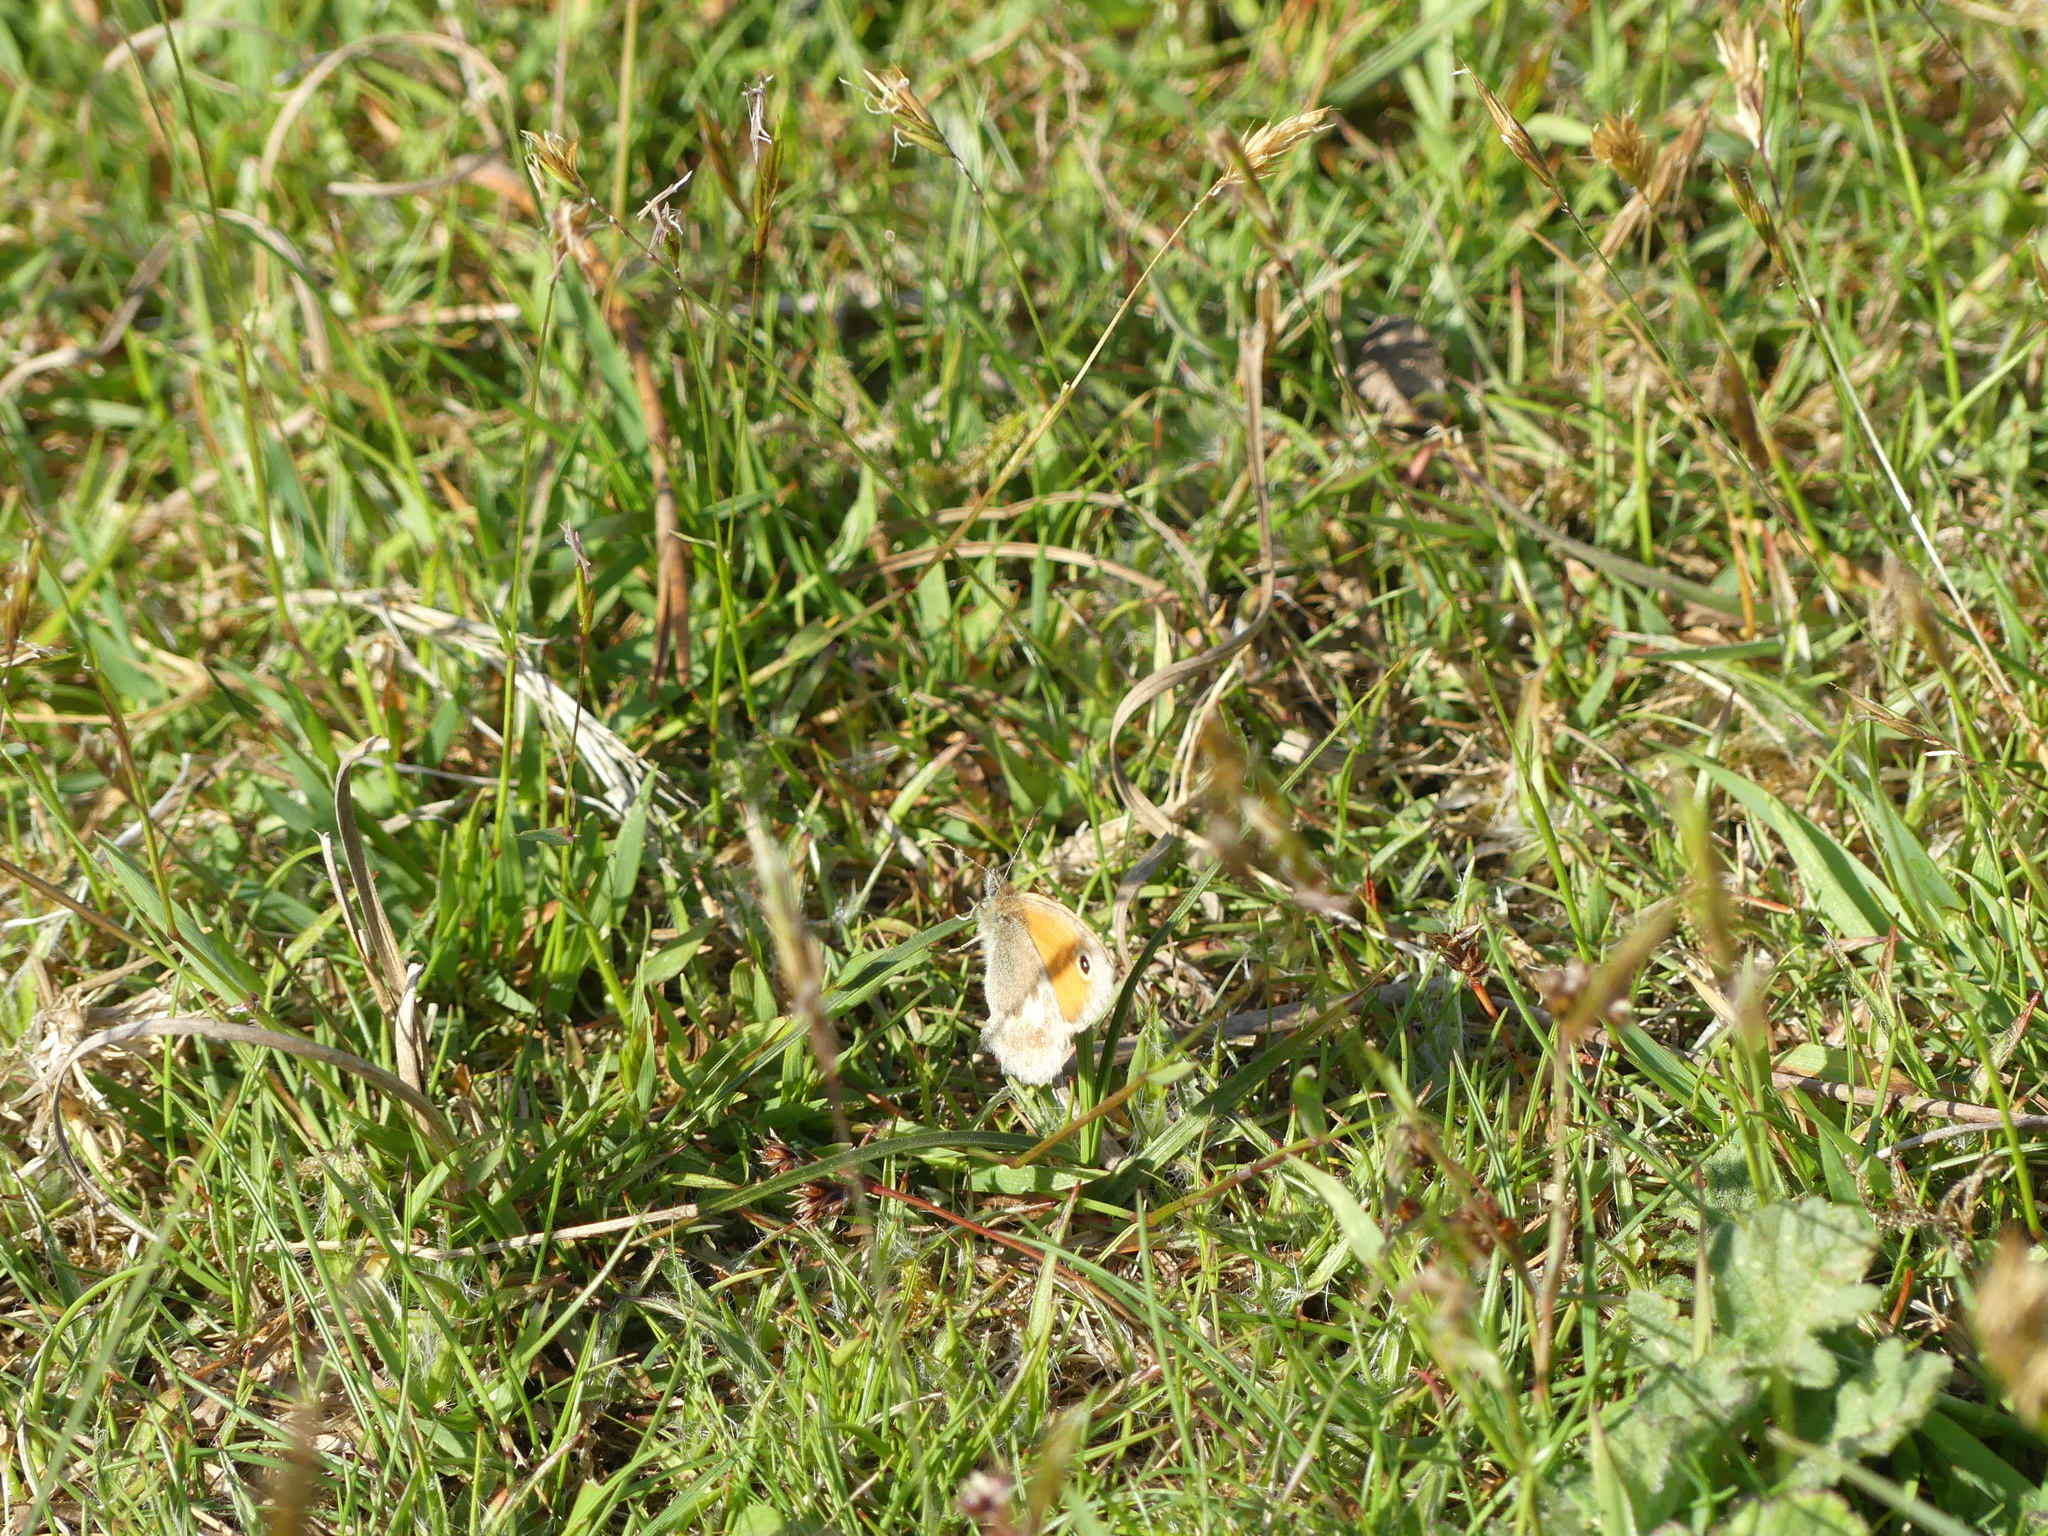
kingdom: Animalia
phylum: Arthropoda
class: Insecta
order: Lepidoptera
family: Nymphalidae
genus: Coenonympha
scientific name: Coenonympha pamphilus
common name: Small heath
